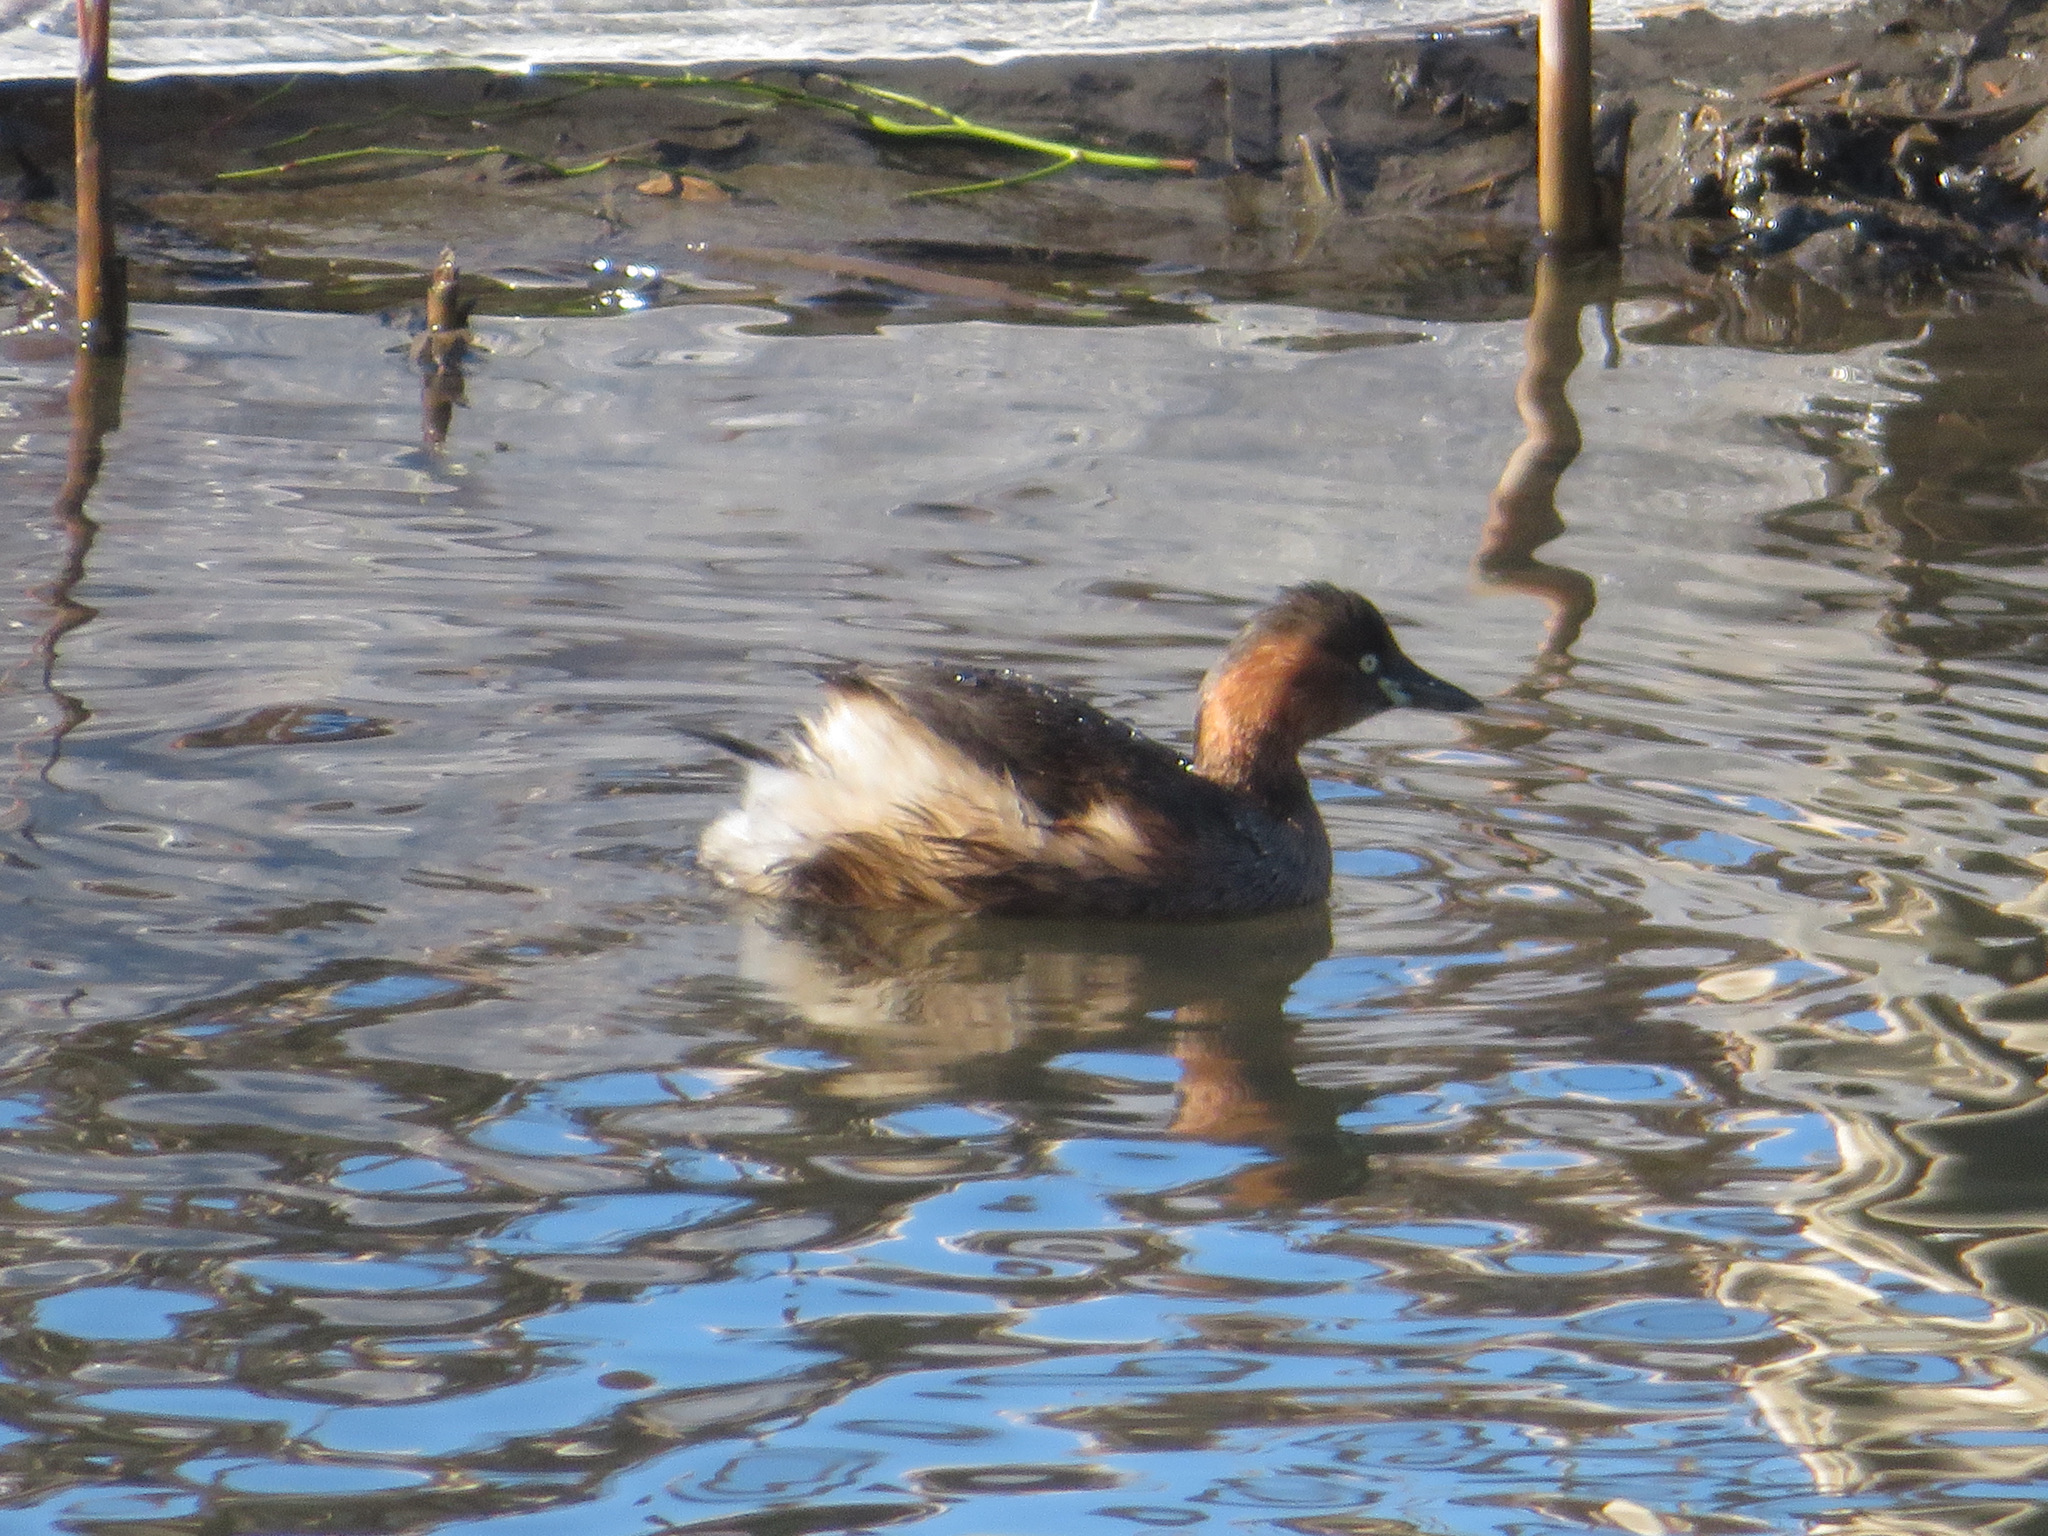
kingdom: Animalia
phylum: Chordata
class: Aves
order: Podicipediformes
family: Podicipedidae
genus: Tachybaptus
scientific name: Tachybaptus ruficollis
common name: Little grebe
